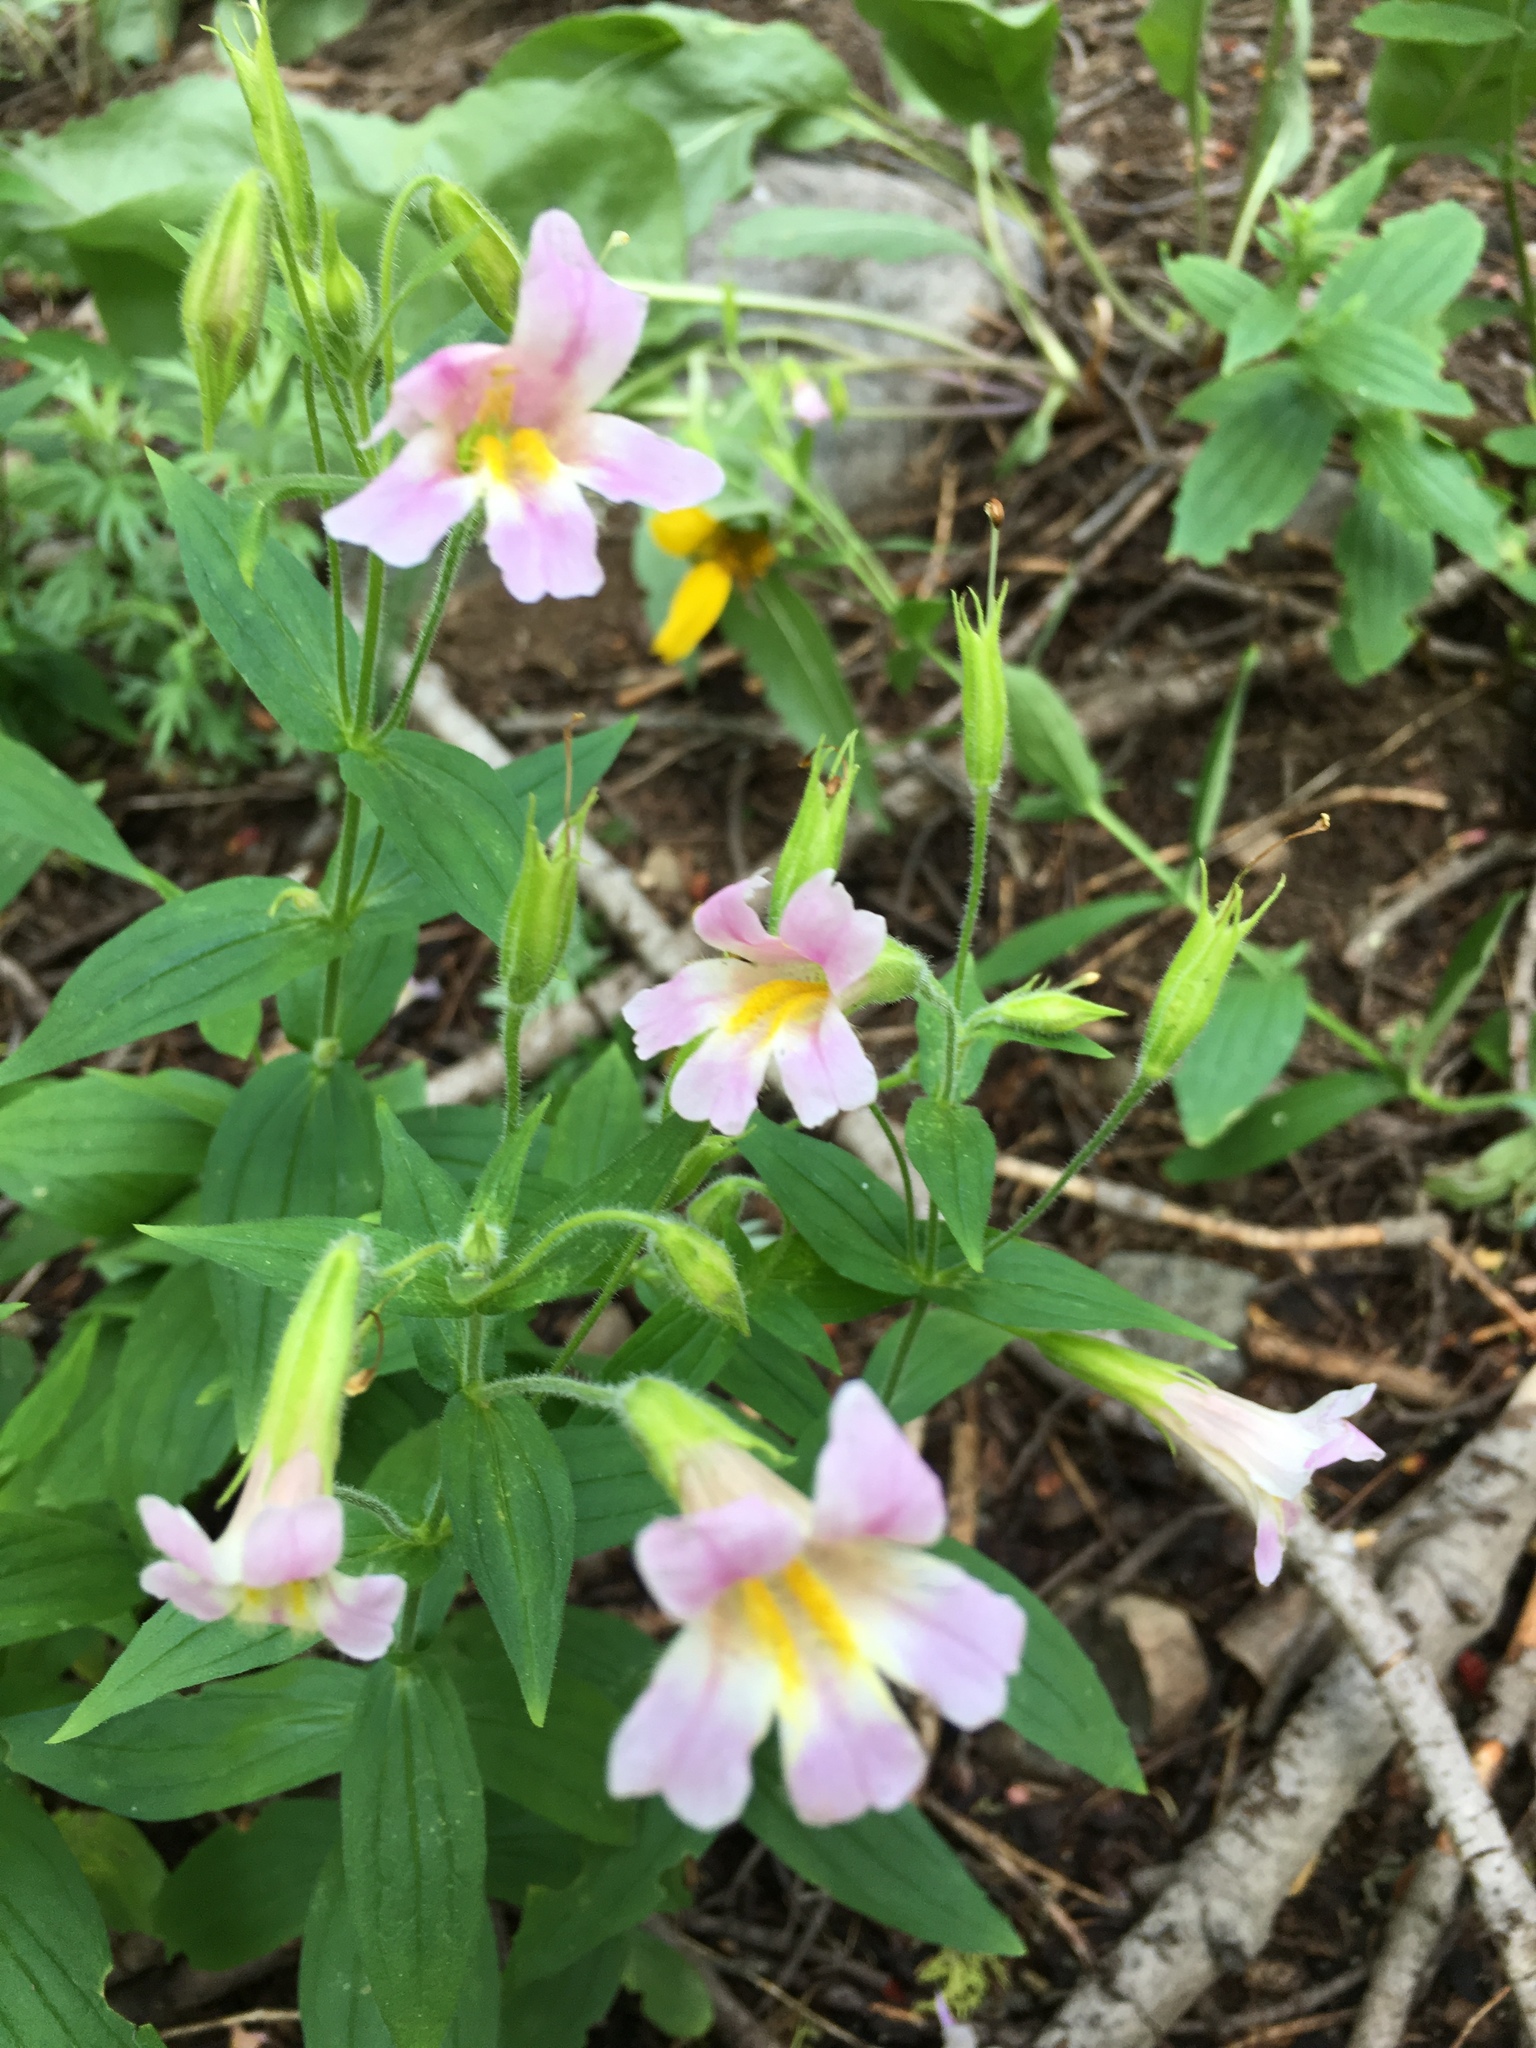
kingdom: Plantae
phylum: Tracheophyta
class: Magnoliopsida
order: Lamiales
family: Phrymaceae
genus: Erythranthe
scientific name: Erythranthe erubescens
